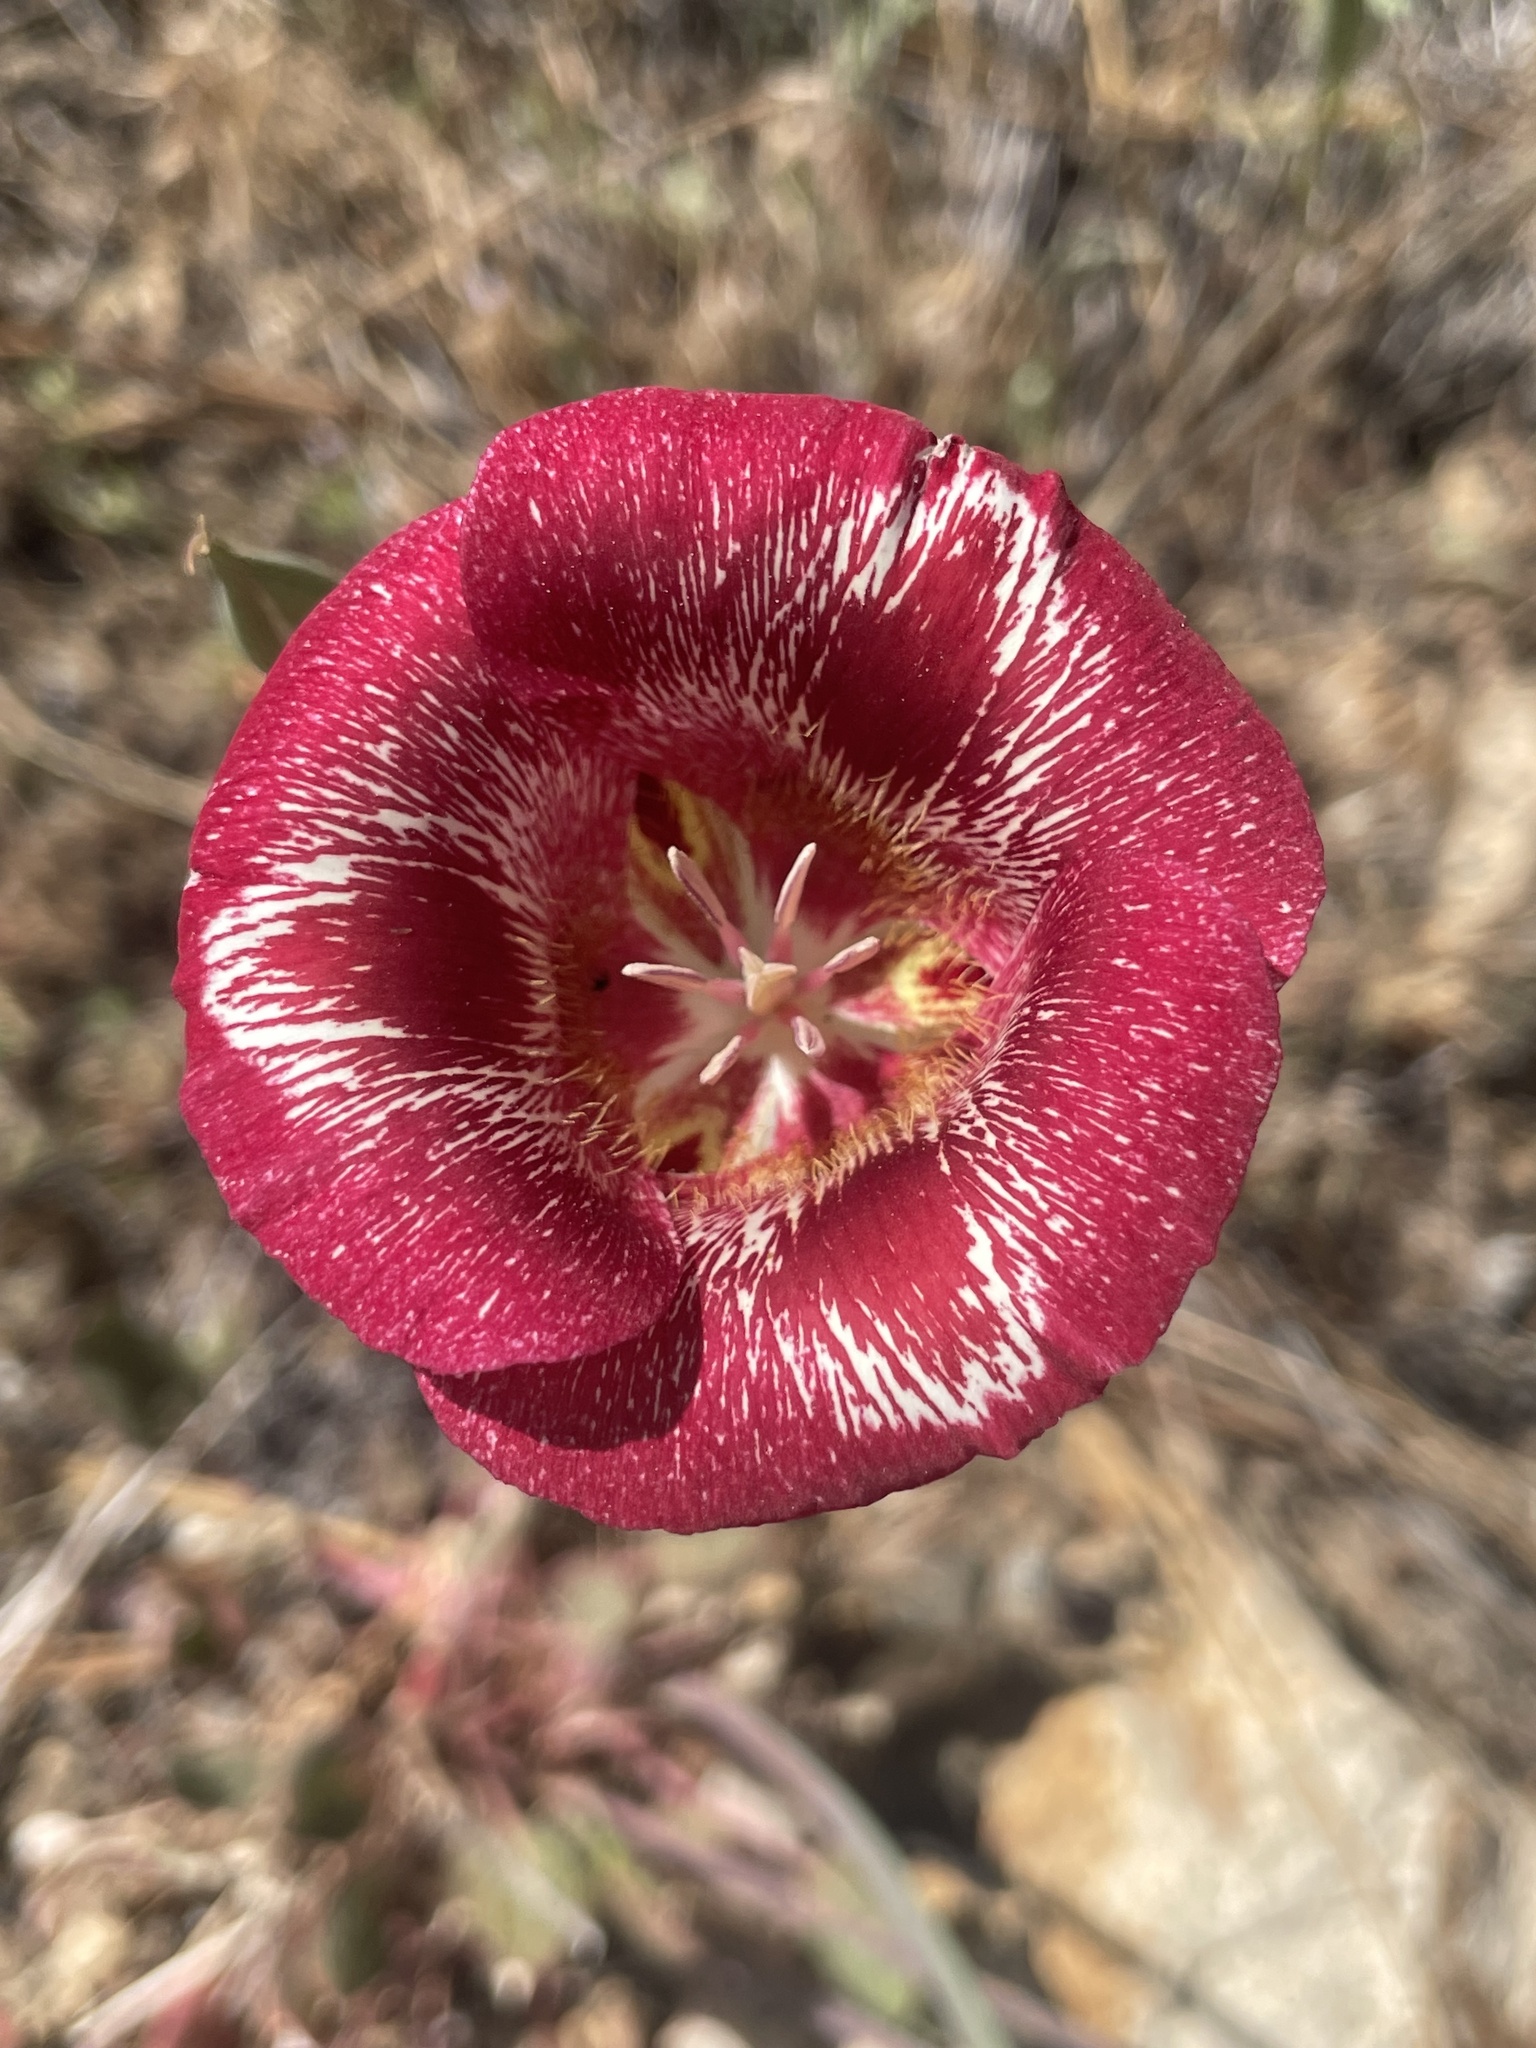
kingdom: Plantae
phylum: Tracheophyta
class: Liliopsida
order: Liliales
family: Liliaceae
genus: Calochortus
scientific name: Calochortus venustus
